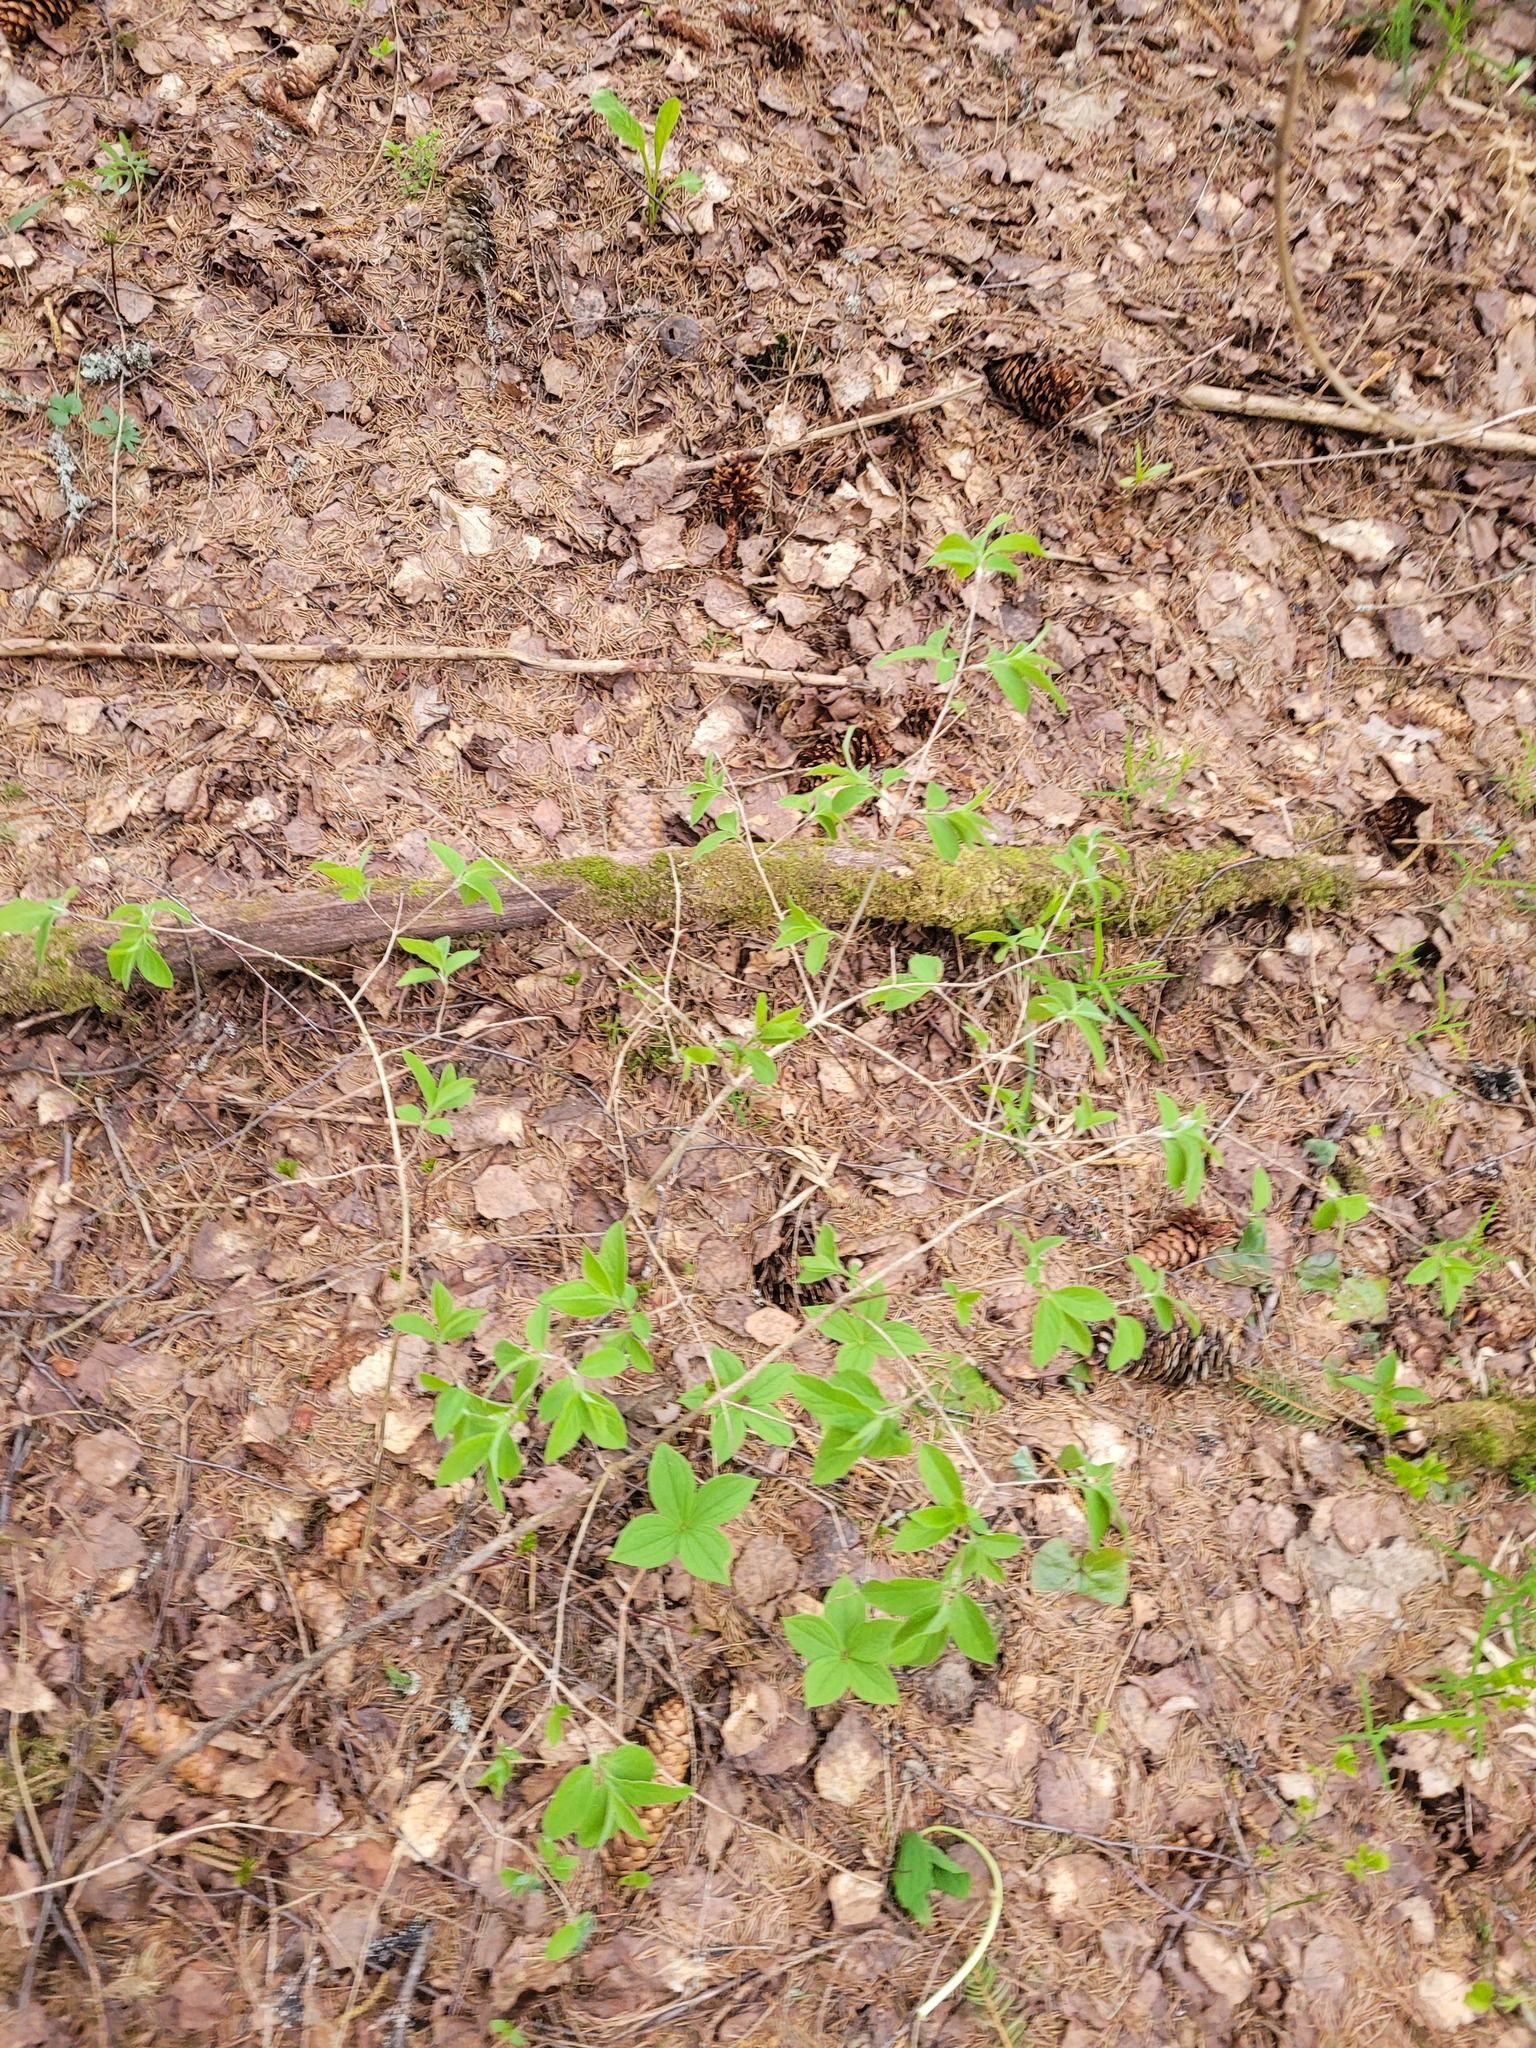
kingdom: Plantae
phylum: Tracheophyta
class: Magnoliopsida
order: Dipsacales
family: Caprifoliaceae
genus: Lonicera
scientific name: Lonicera xylosteum
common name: Fly honeysuckle
